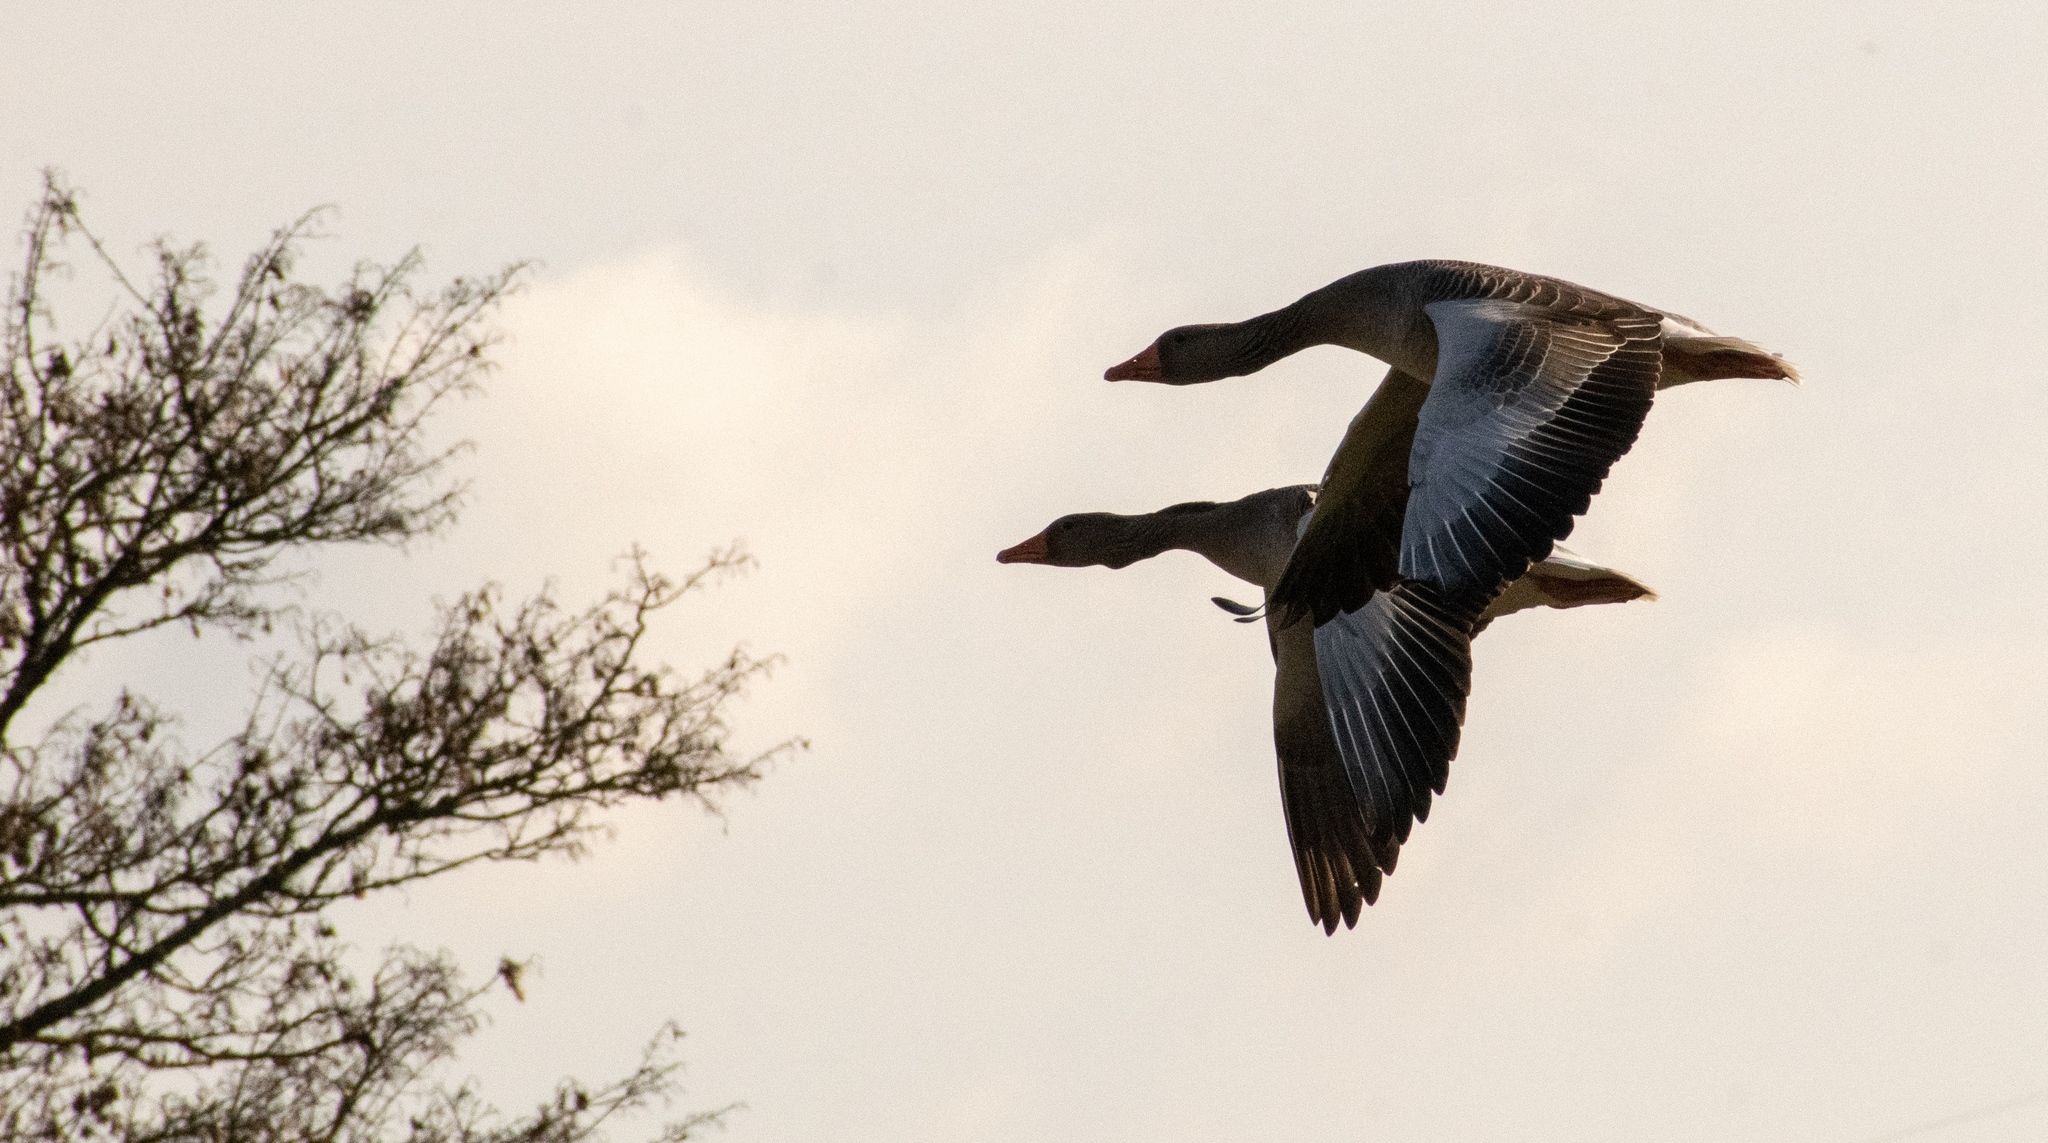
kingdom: Animalia
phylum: Chordata
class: Aves
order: Anseriformes
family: Anatidae
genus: Anser
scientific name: Anser anser
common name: Greylag goose
